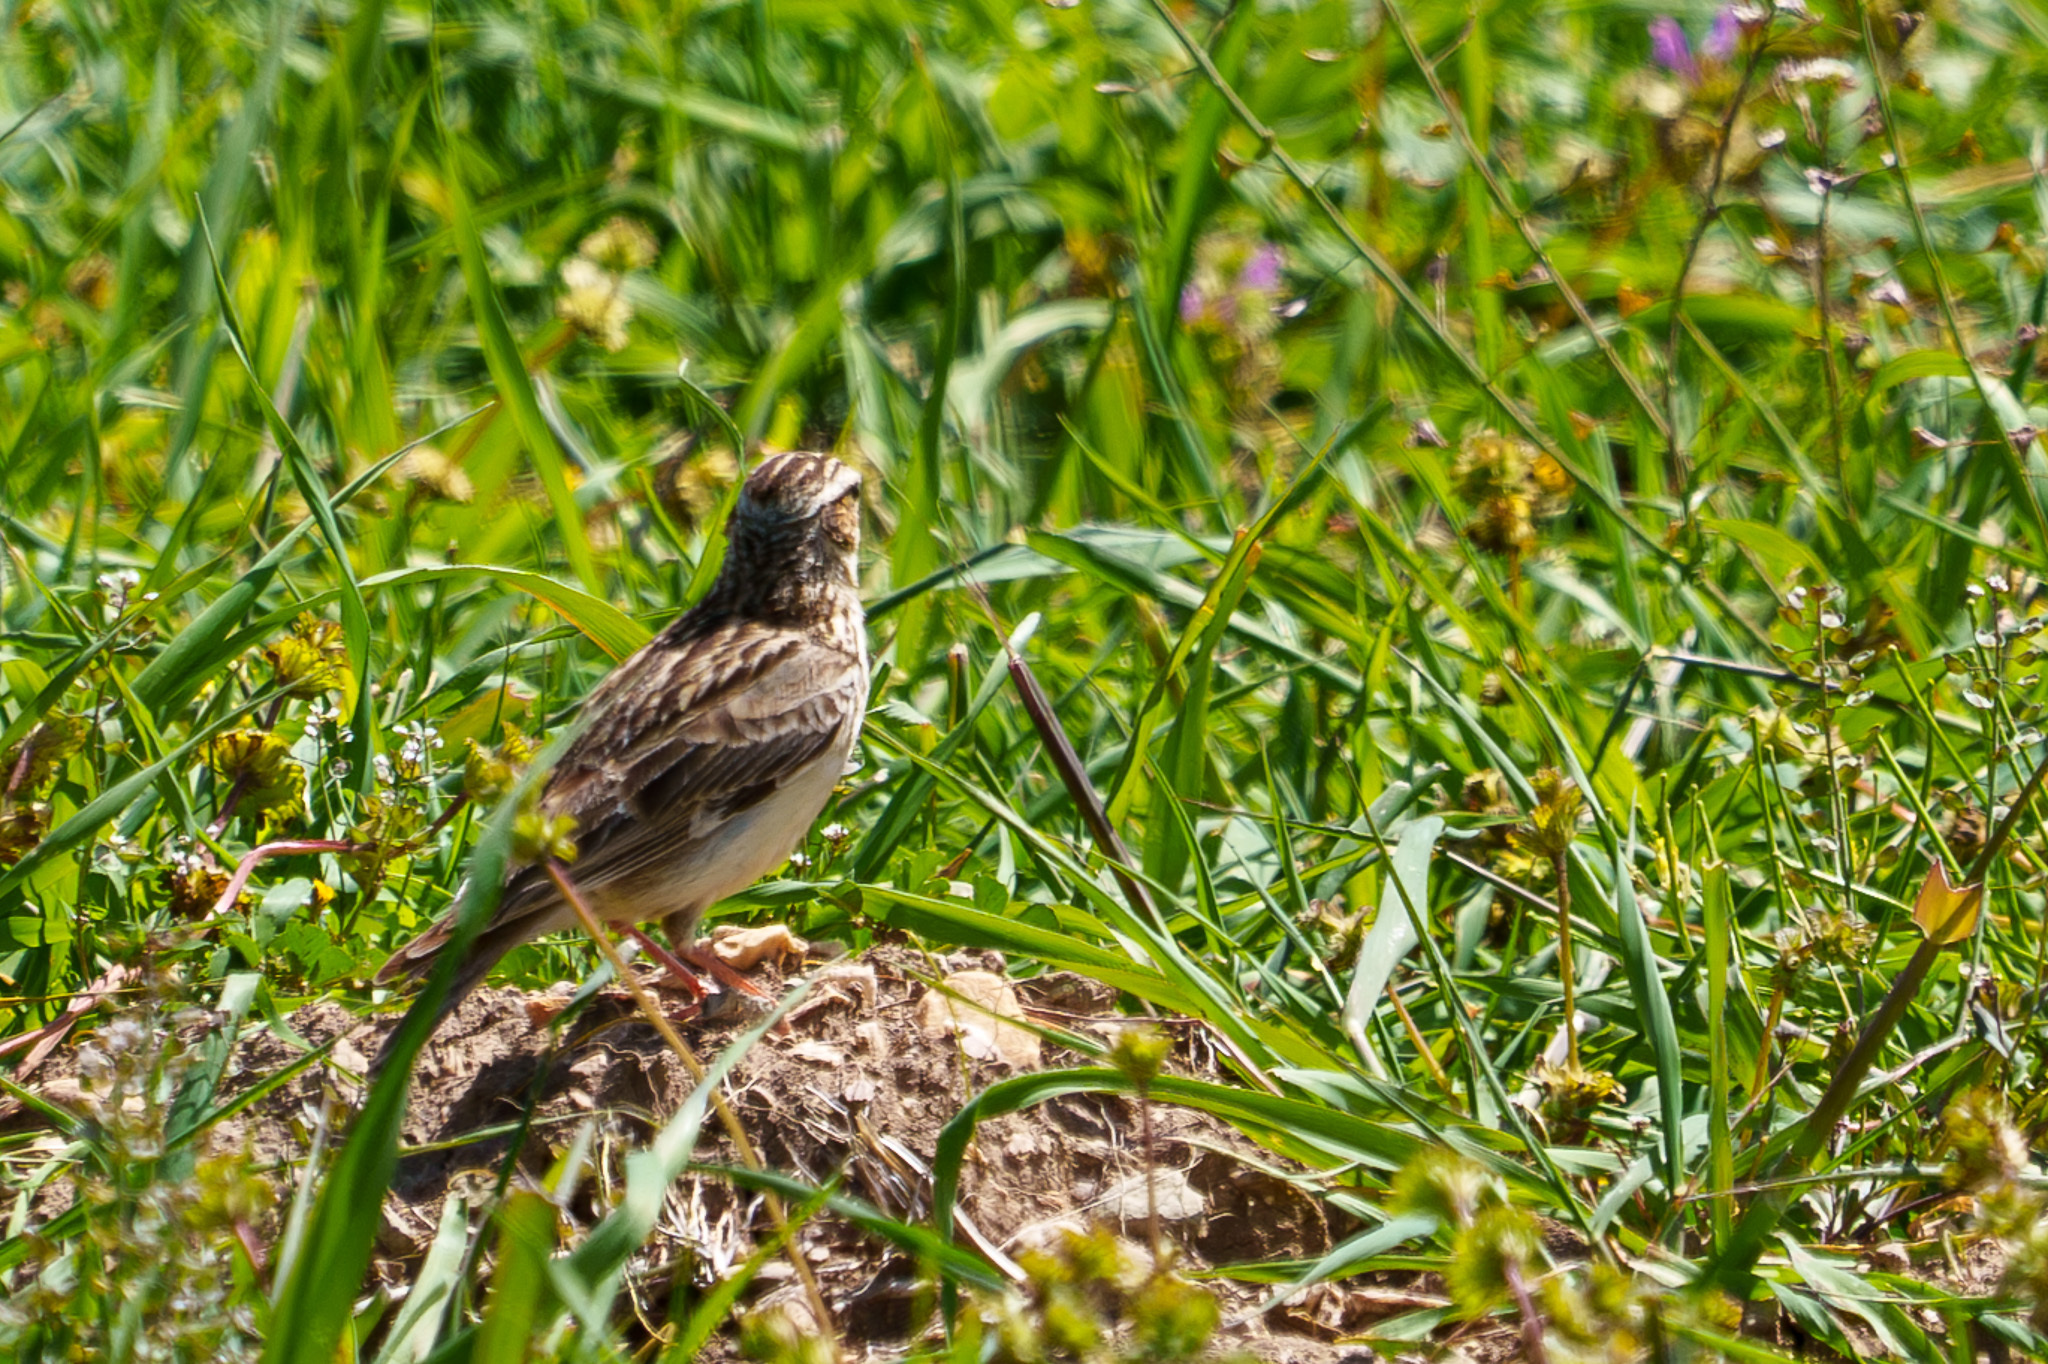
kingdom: Animalia
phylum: Chordata
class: Aves
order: Passeriformes
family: Alaudidae
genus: Galerida
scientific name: Galerida cristata
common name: Crested lark
